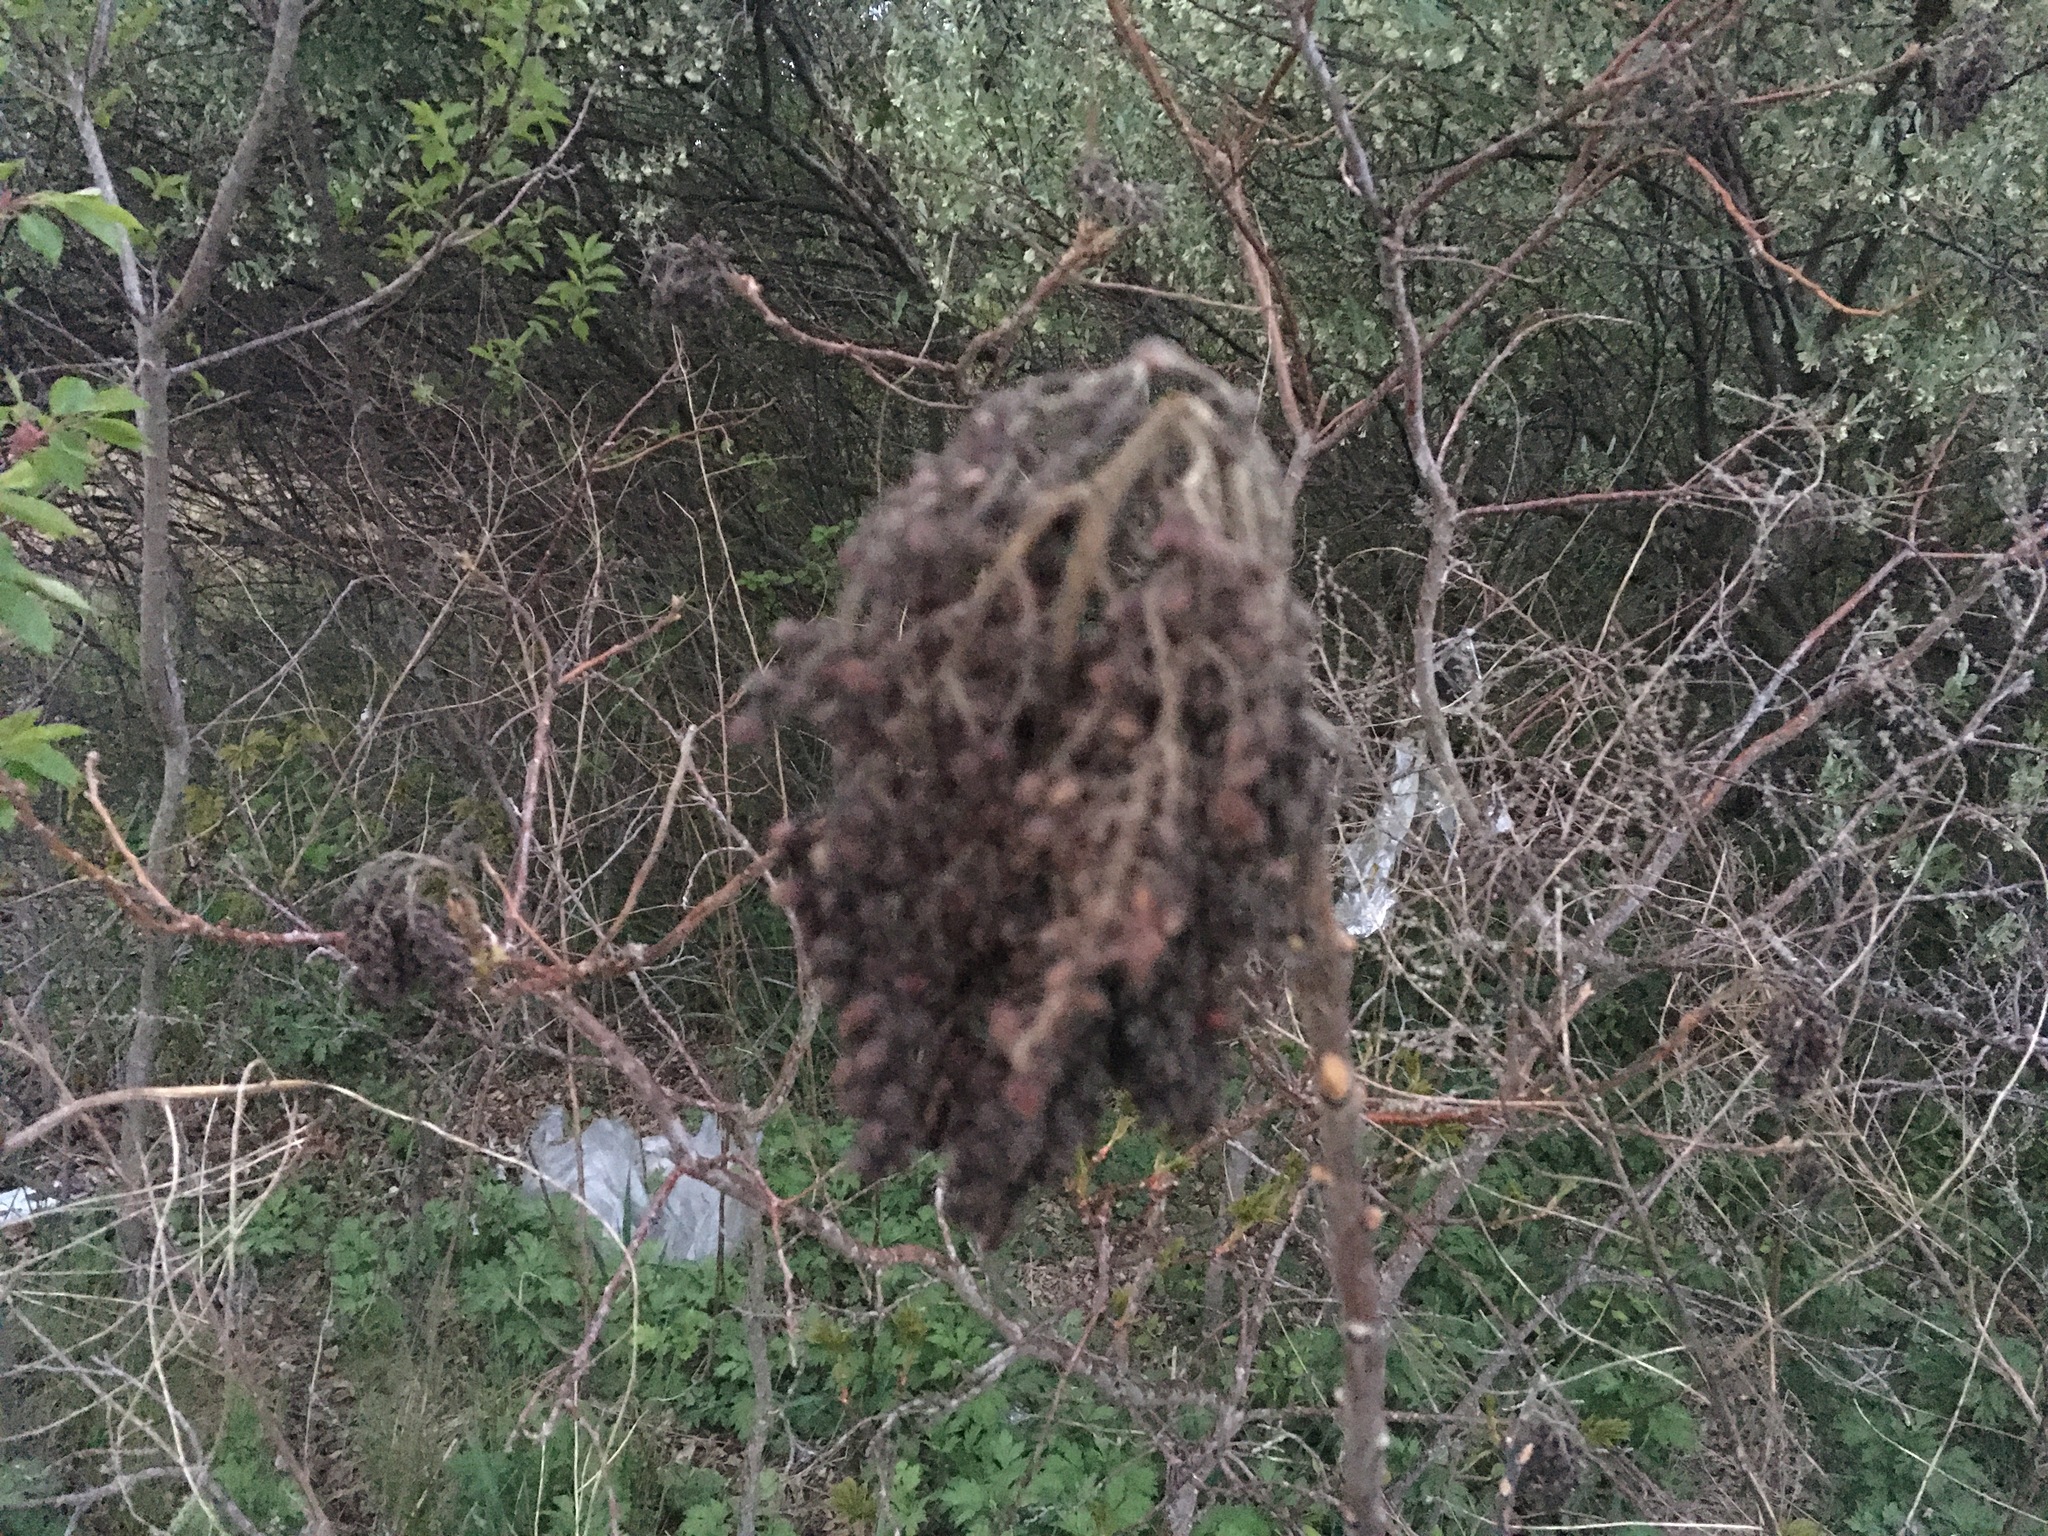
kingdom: Plantae
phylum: Tracheophyta
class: Magnoliopsida
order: Sapindales
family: Anacardiaceae
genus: Rhus
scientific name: Rhus
